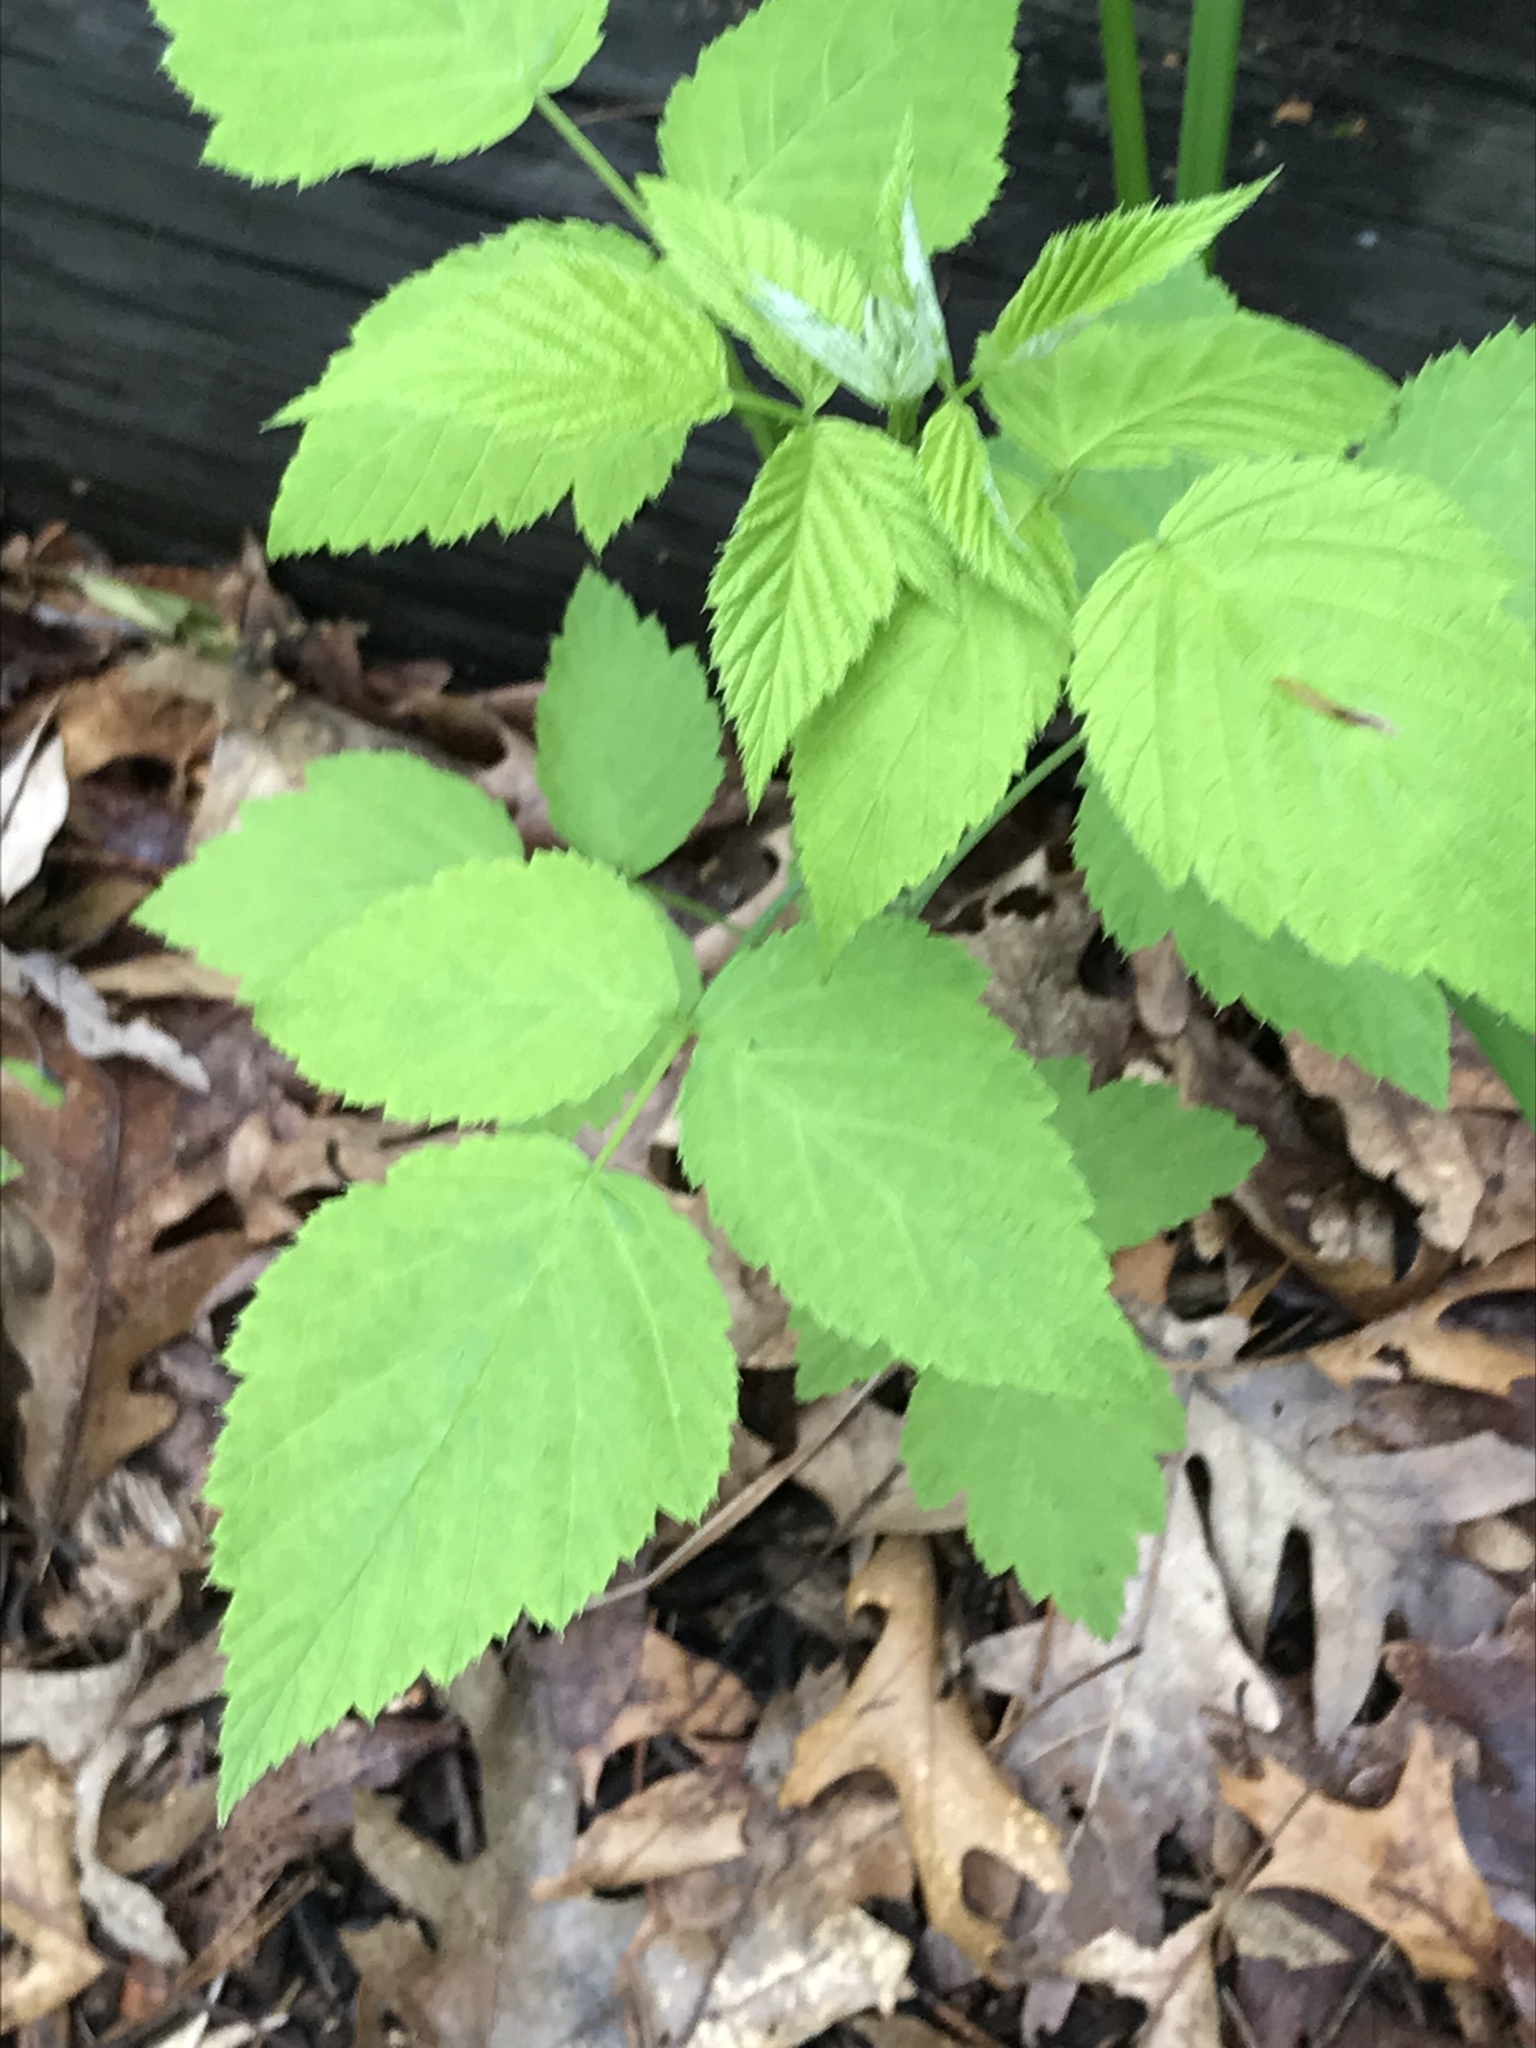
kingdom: Plantae
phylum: Tracheophyta
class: Magnoliopsida
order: Rosales
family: Rosaceae
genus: Rubus
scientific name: Rubus occidentalis
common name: Black raspberry
